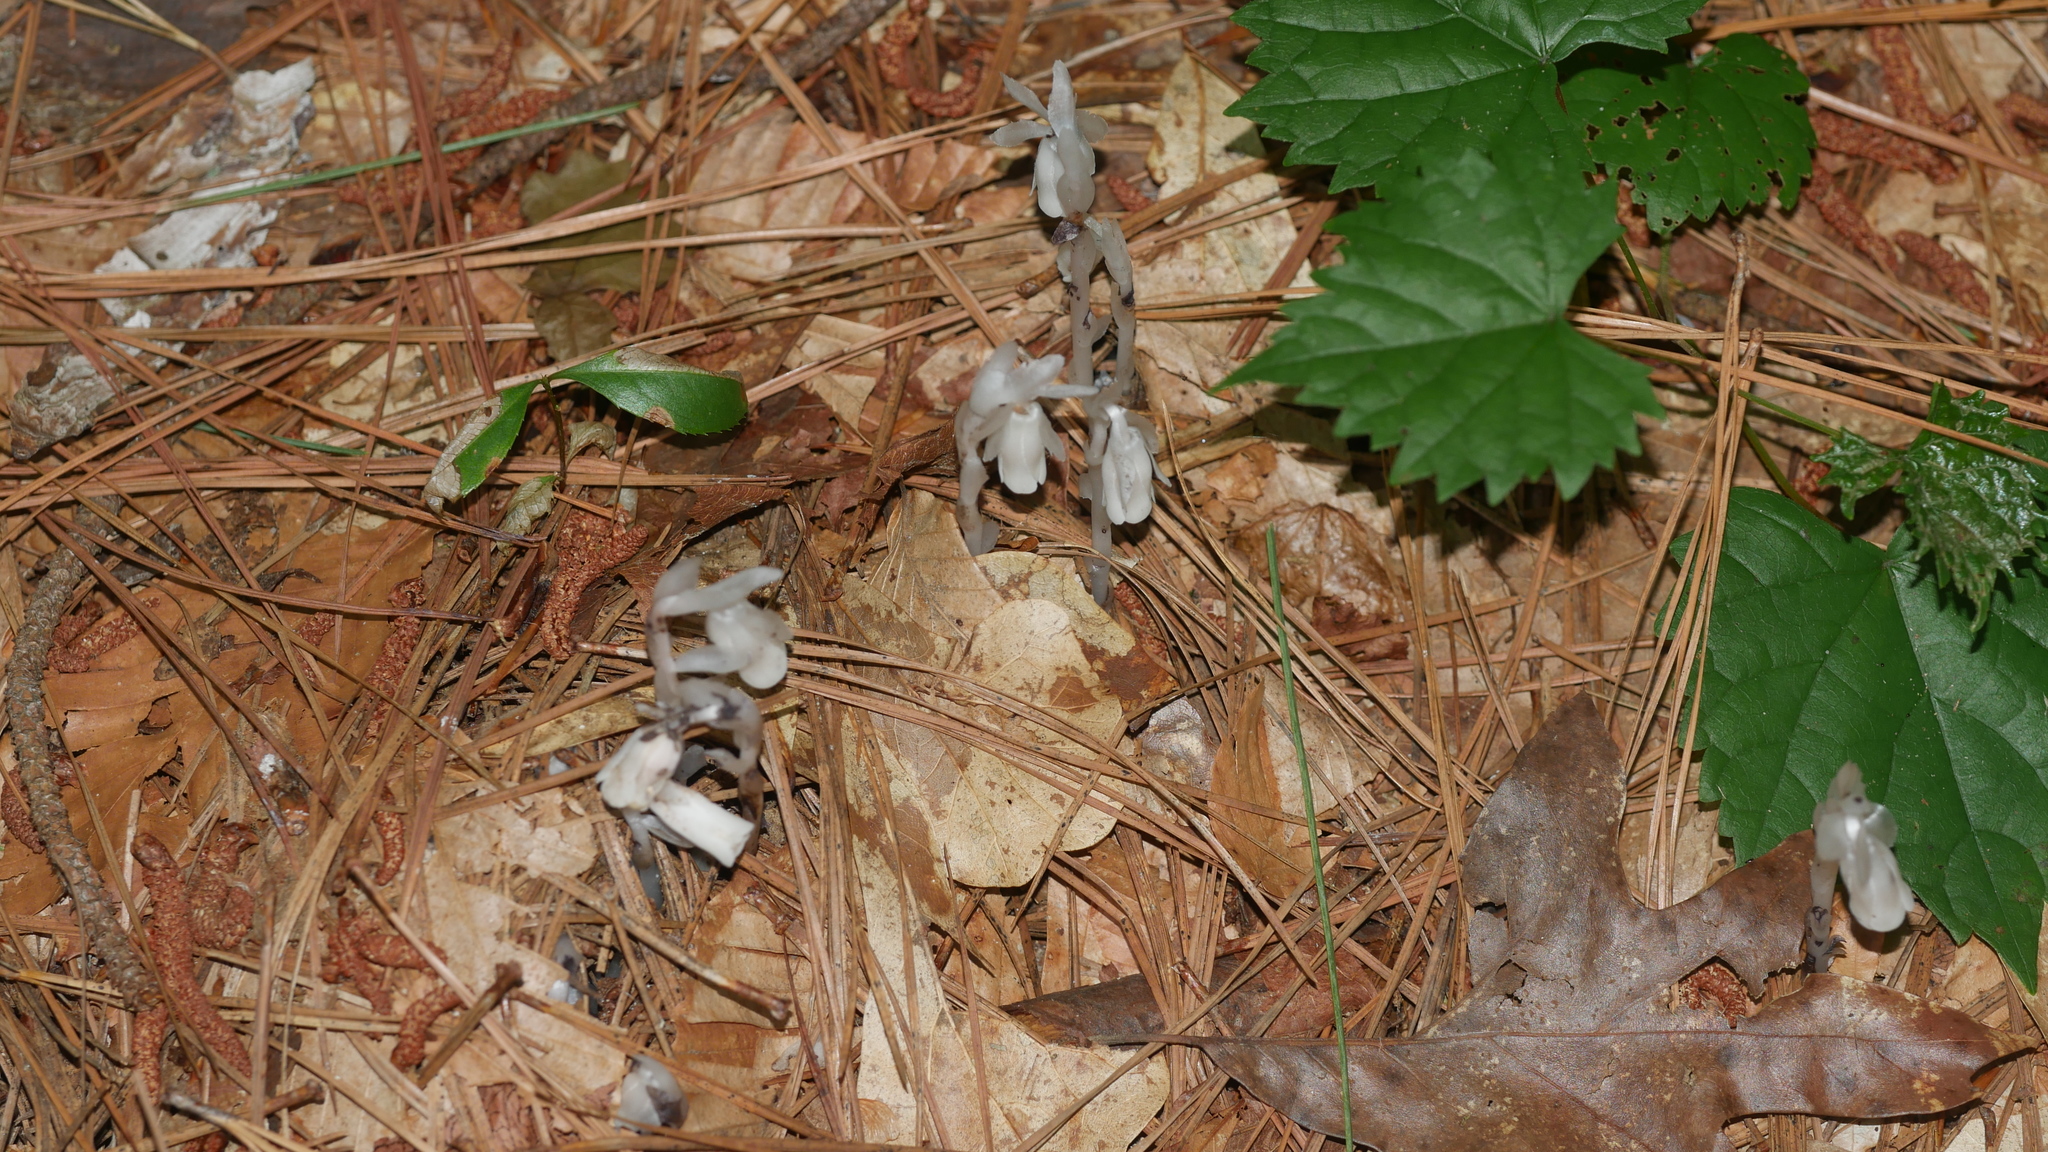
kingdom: Plantae
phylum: Tracheophyta
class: Magnoliopsida
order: Ericales
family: Ericaceae
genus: Monotropa
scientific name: Monotropa uniflora
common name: Convulsion root
